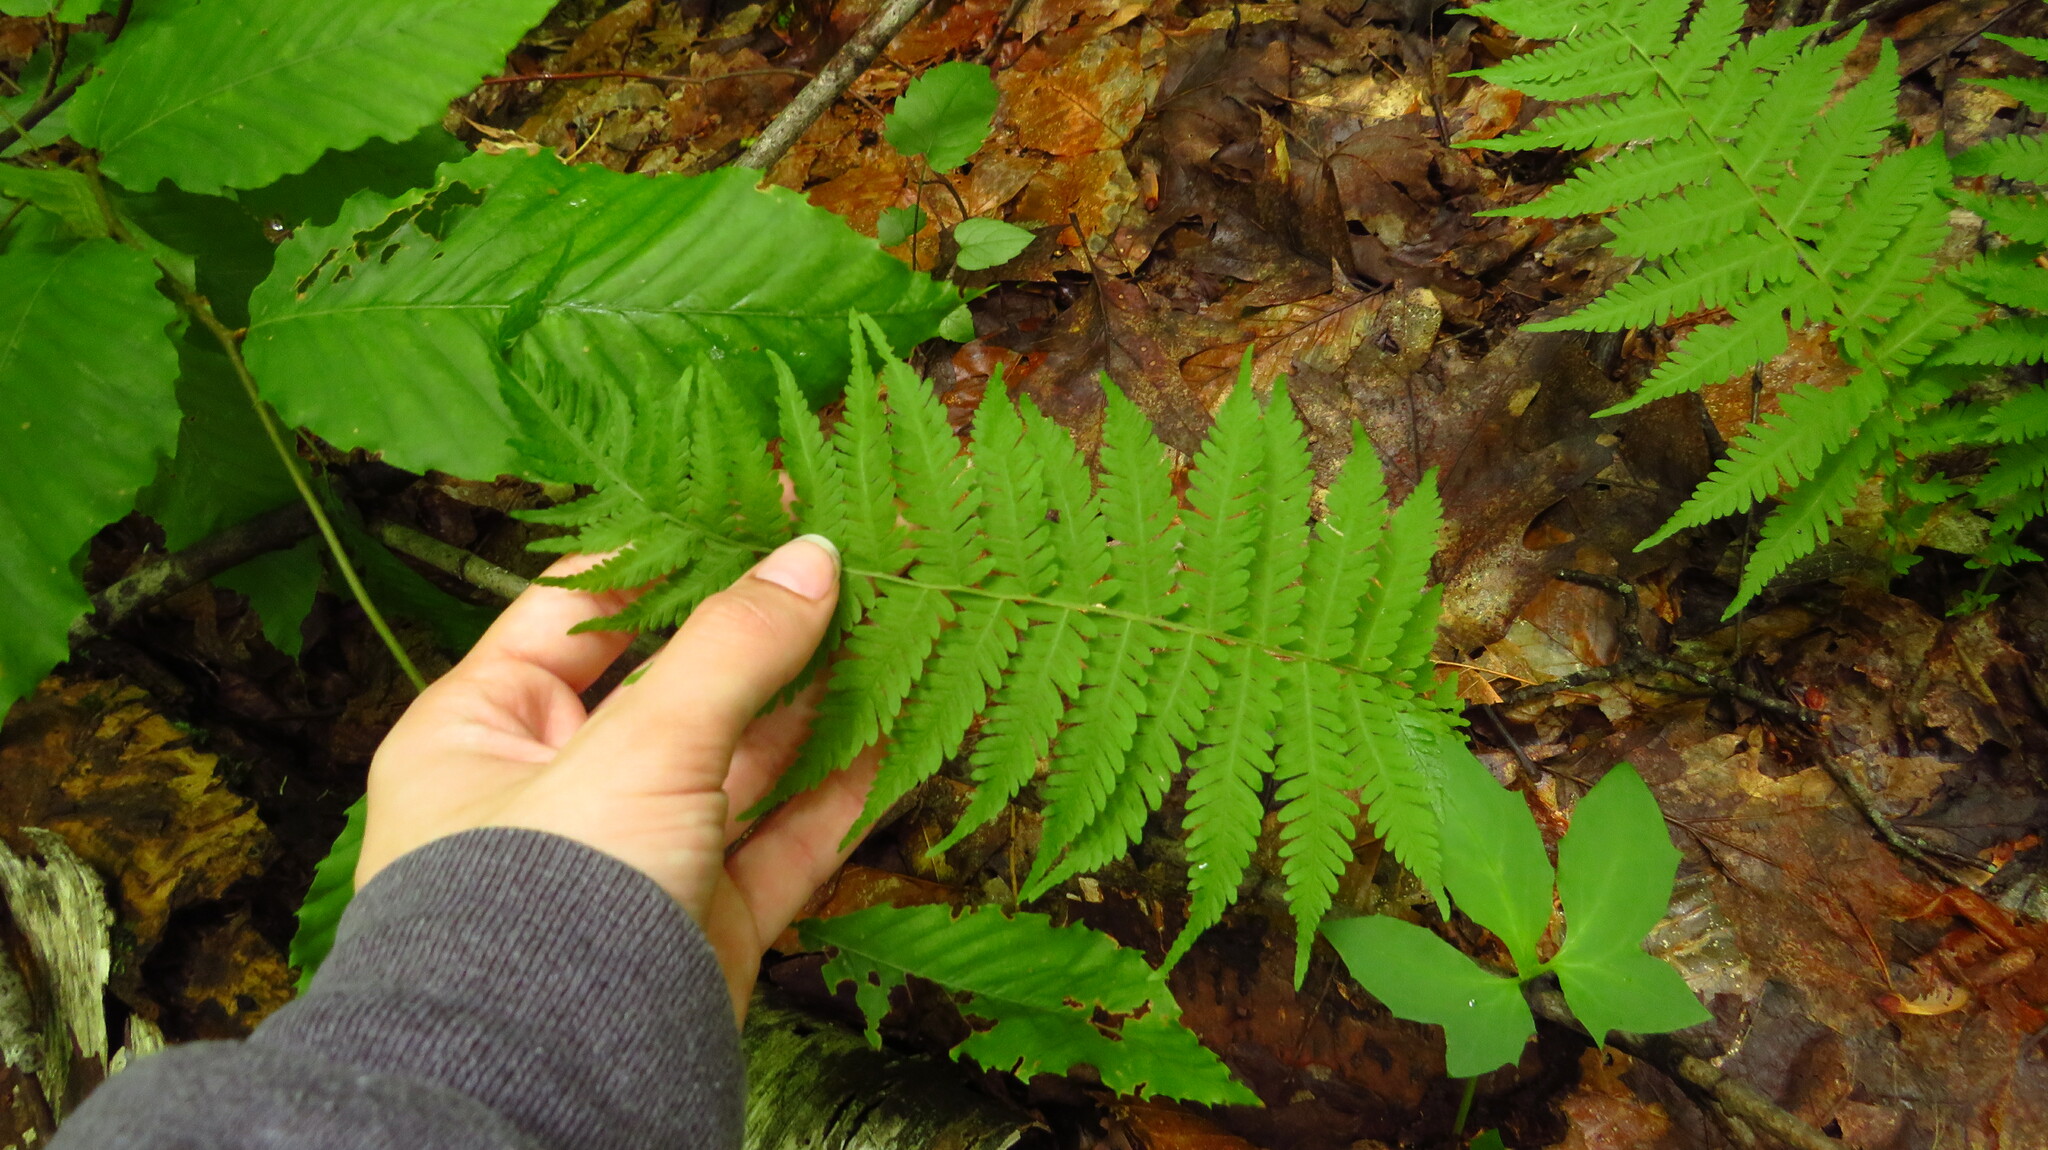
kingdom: Plantae
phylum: Tracheophyta
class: Polypodiopsida
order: Polypodiales
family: Thelypteridaceae
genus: Amauropelta
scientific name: Amauropelta noveboracensis
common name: New york fern
